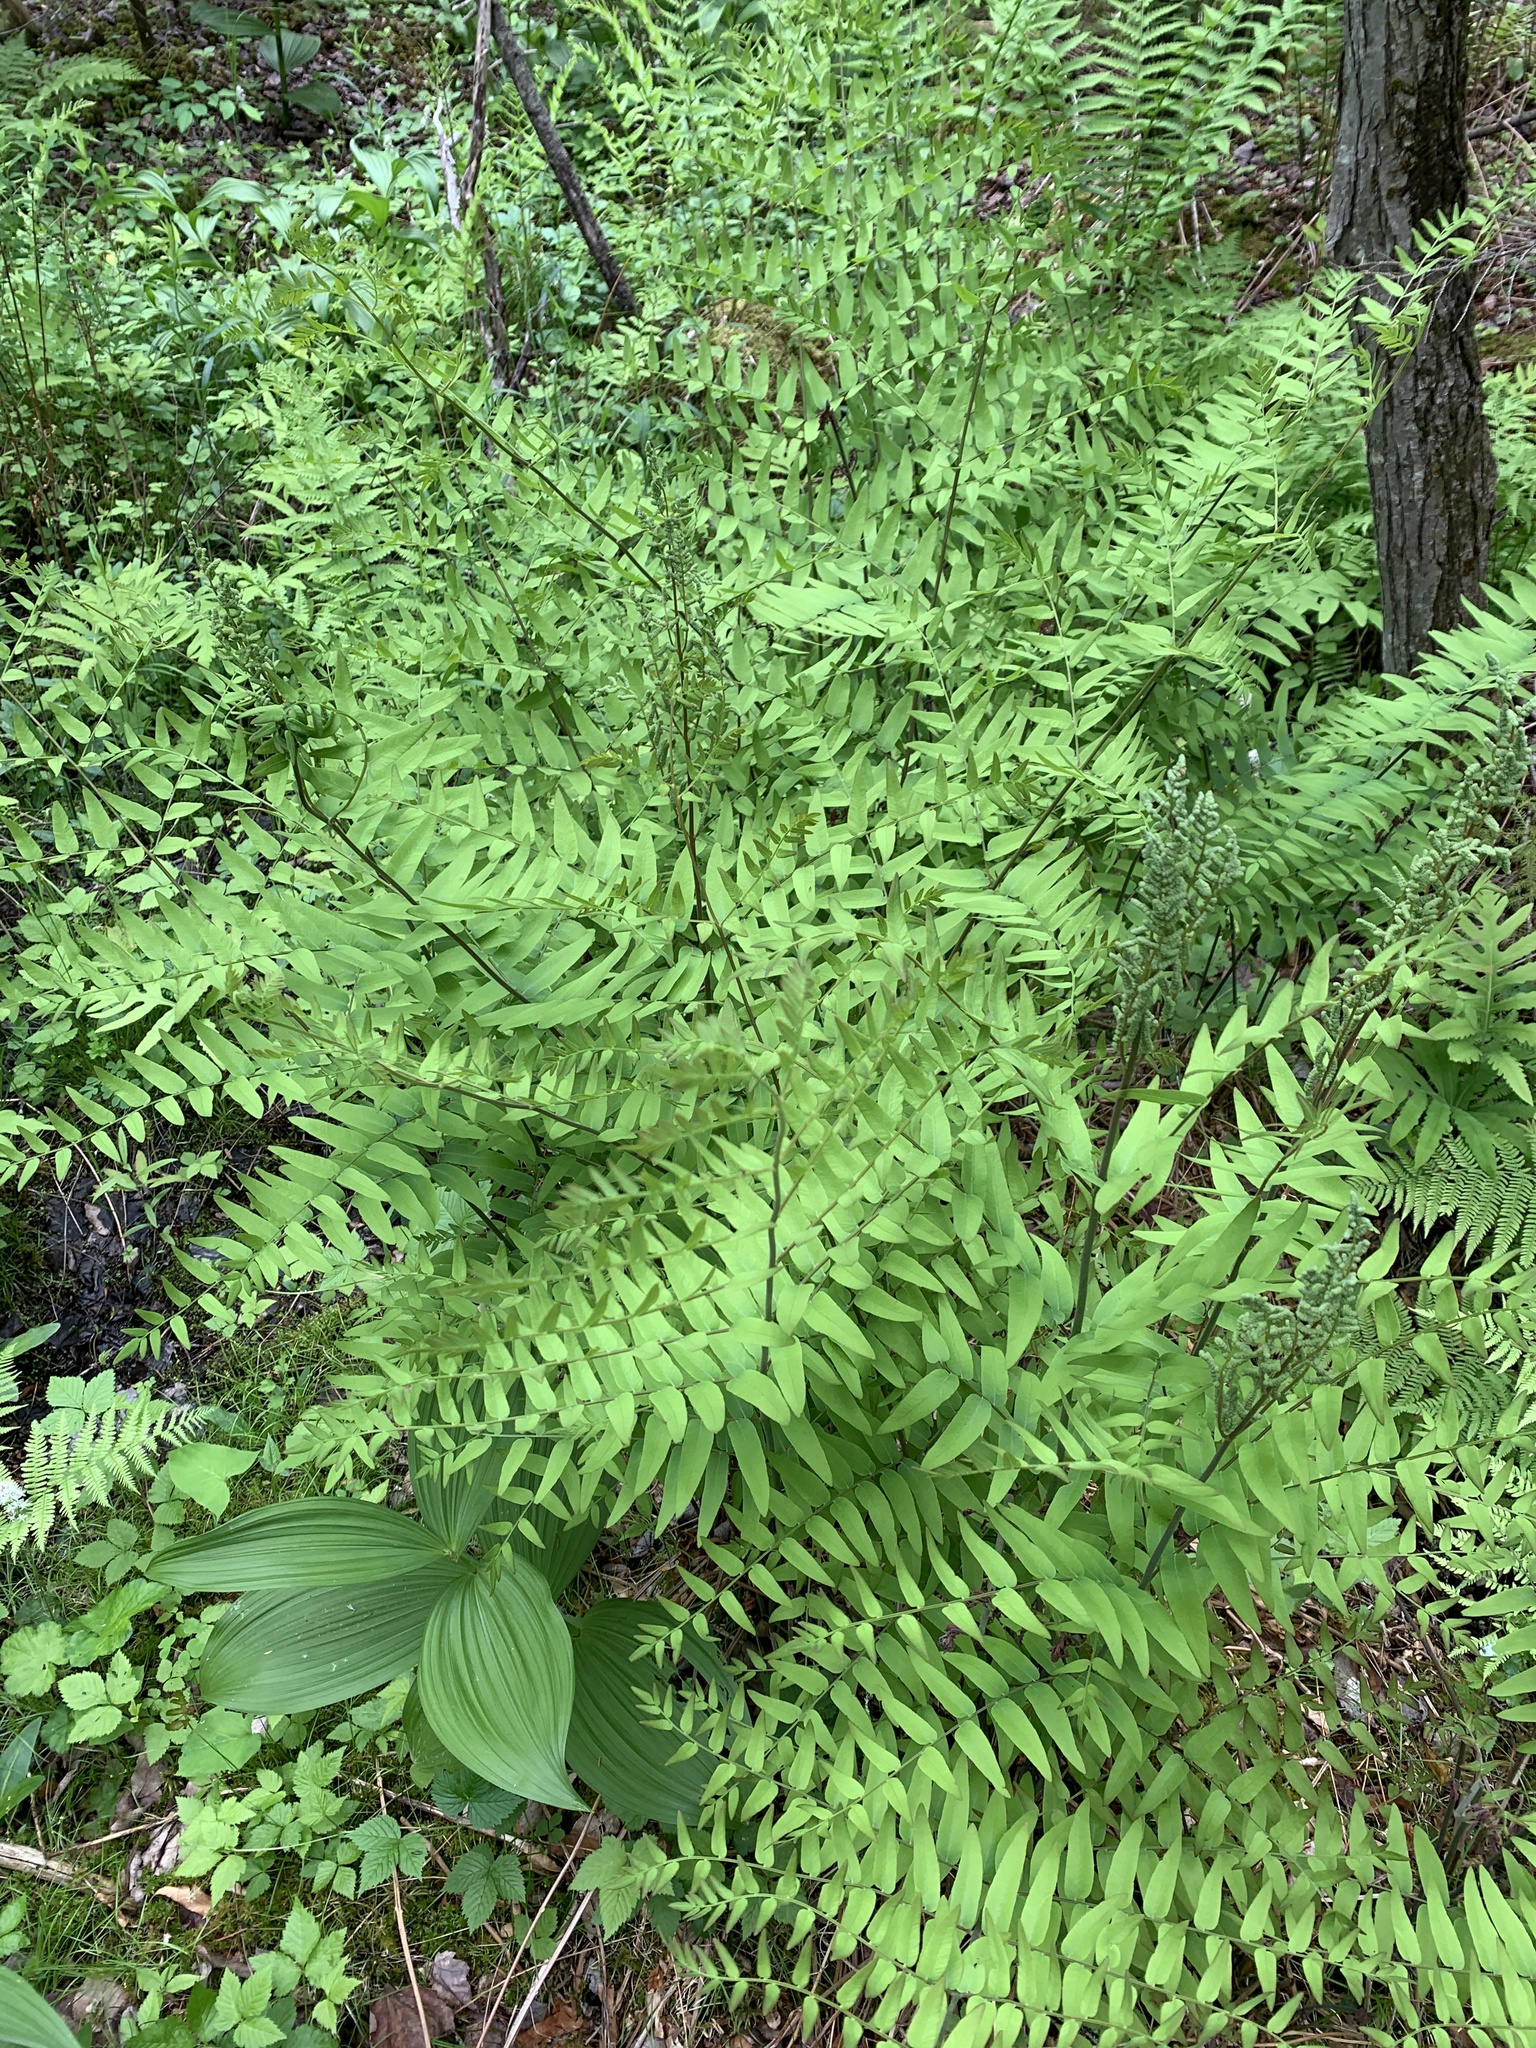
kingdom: Plantae
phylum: Tracheophyta
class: Polypodiopsida
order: Osmundales
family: Osmundaceae
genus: Osmunda
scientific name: Osmunda spectabilis
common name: American royal fern
